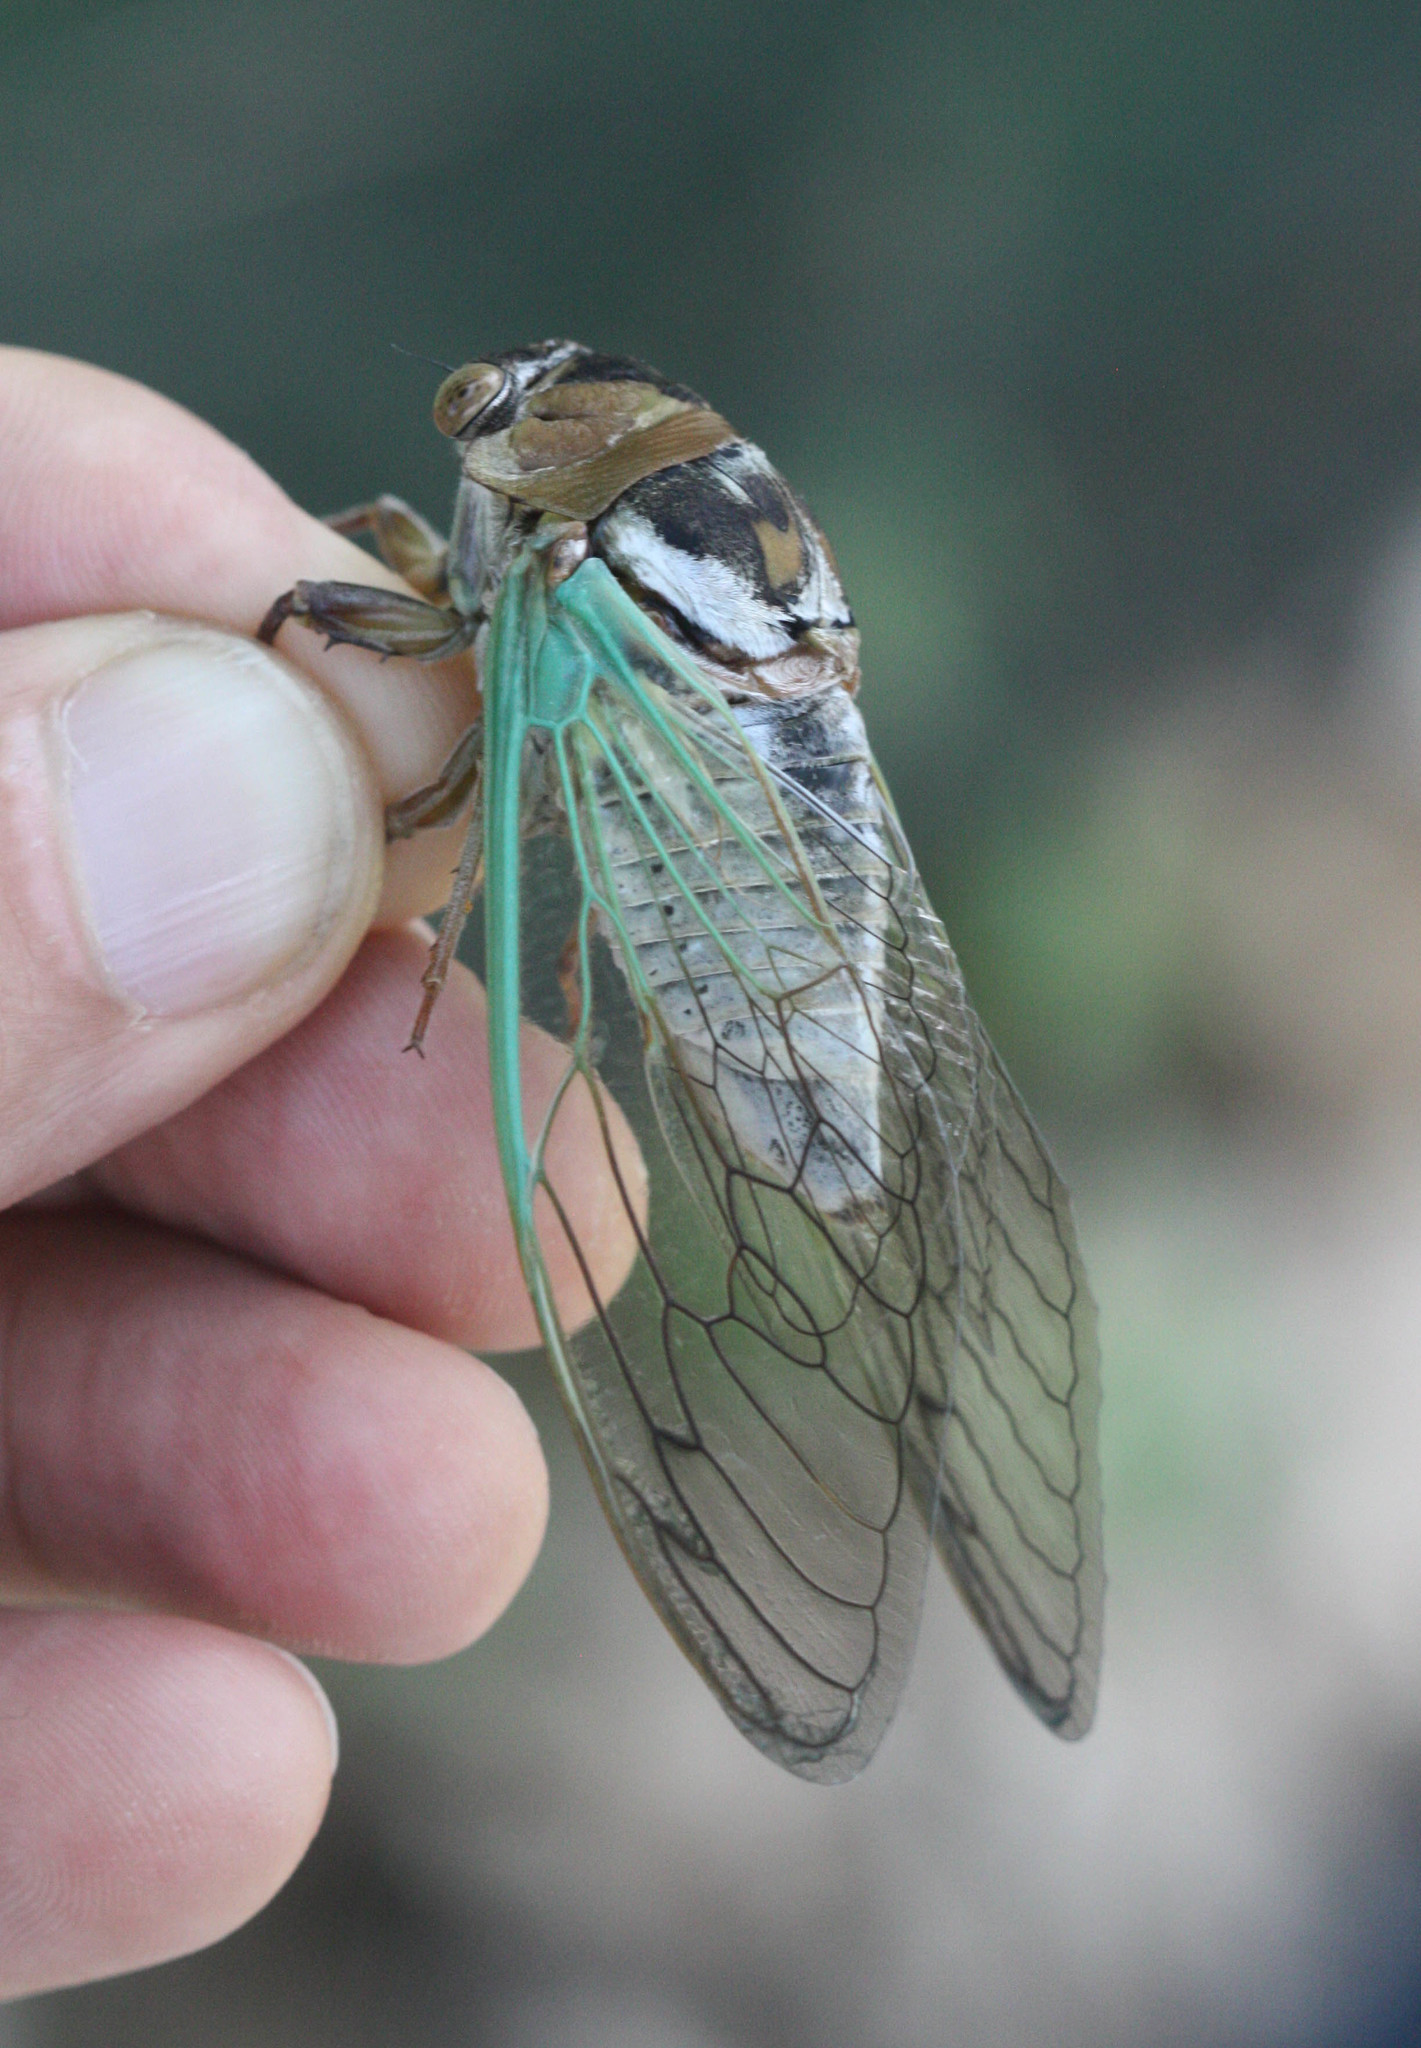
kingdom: Animalia
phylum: Arthropoda
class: Insecta
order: Hemiptera
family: Cicadidae
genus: Megatibicen
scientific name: Megatibicen cultriformis
